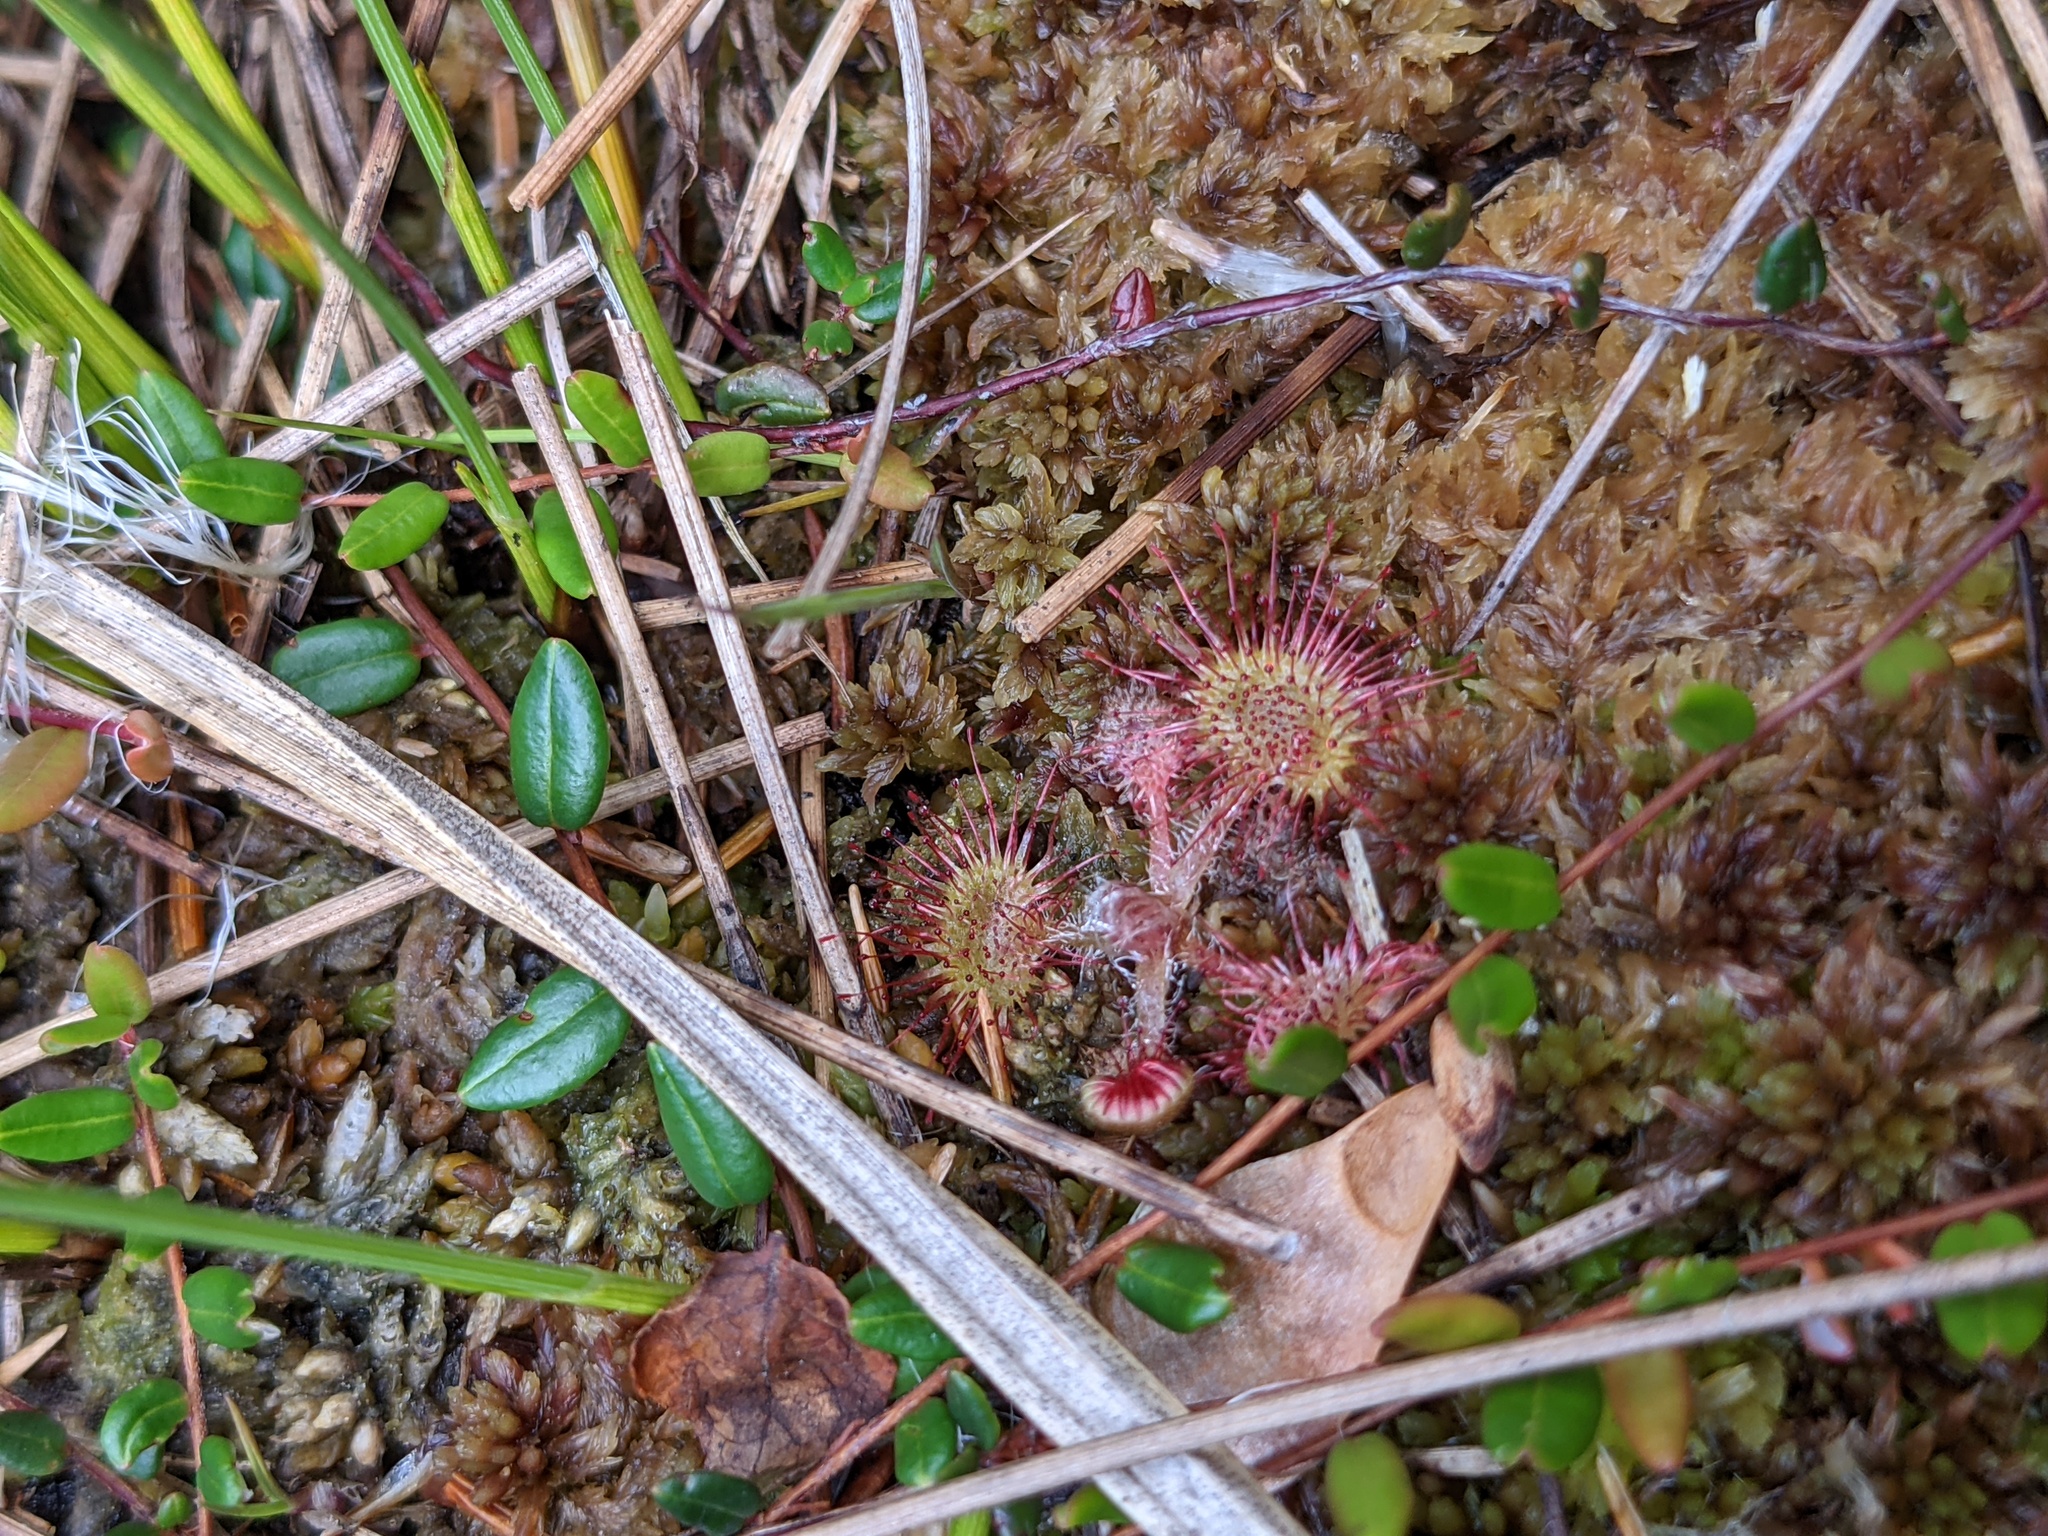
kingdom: Plantae
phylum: Tracheophyta
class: Magnoliopsida
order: Caryophyllales
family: Droseraceae
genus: Drosera
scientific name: Drosera rotundifolia
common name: Round-leaved sundew
